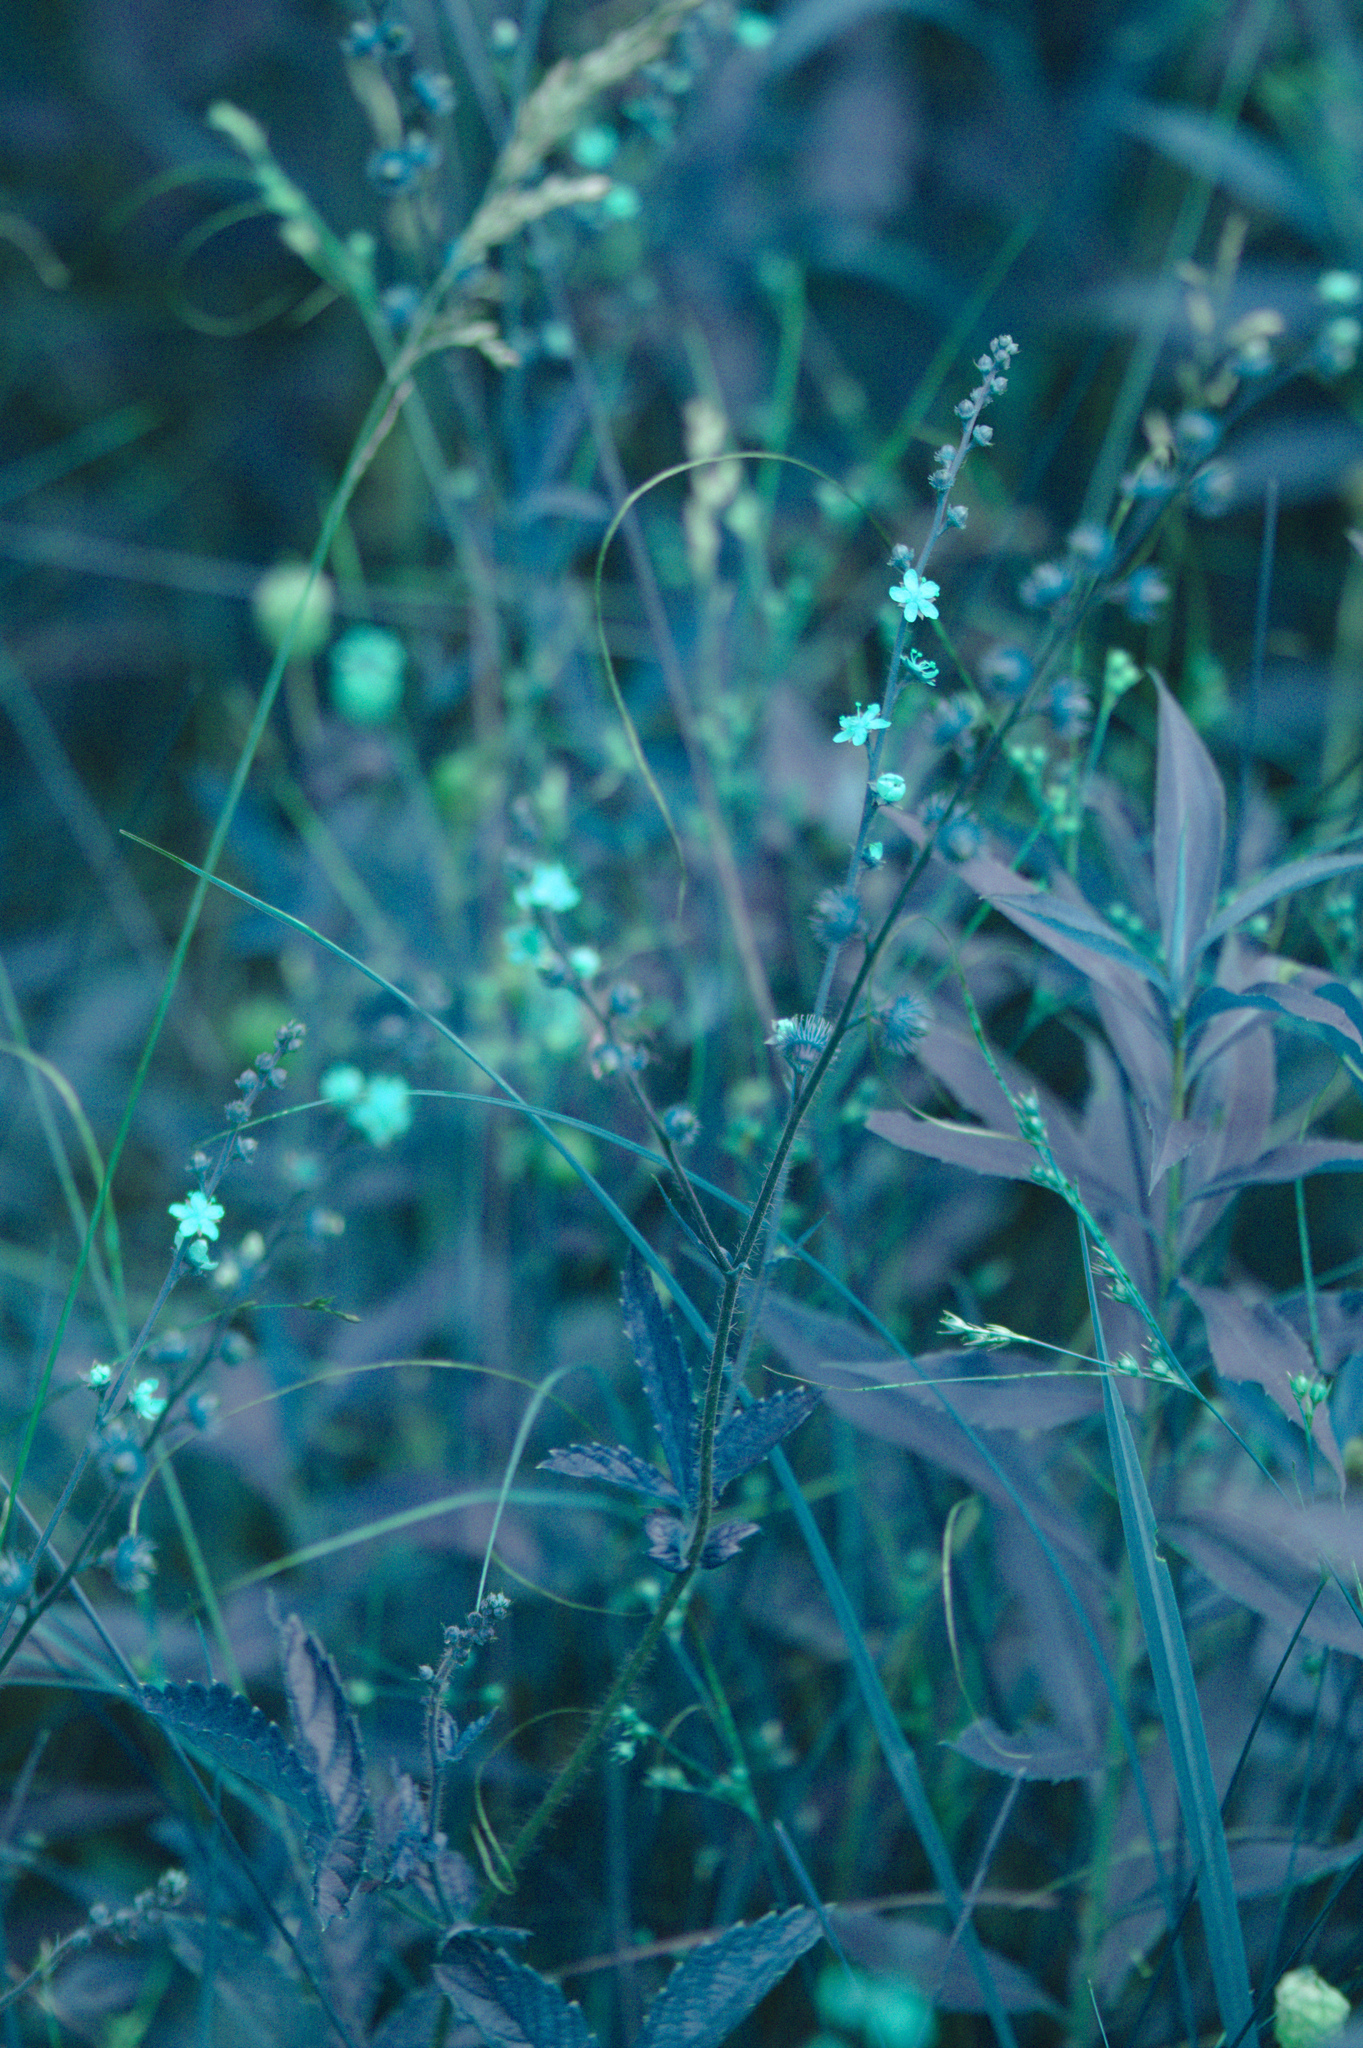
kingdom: Plantae
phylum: Tracheophyta
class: Magnoliopsida
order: Rosales
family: Rosaceae
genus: Agrimonia
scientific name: Agrimonia gryposepala
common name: Common agrimony
